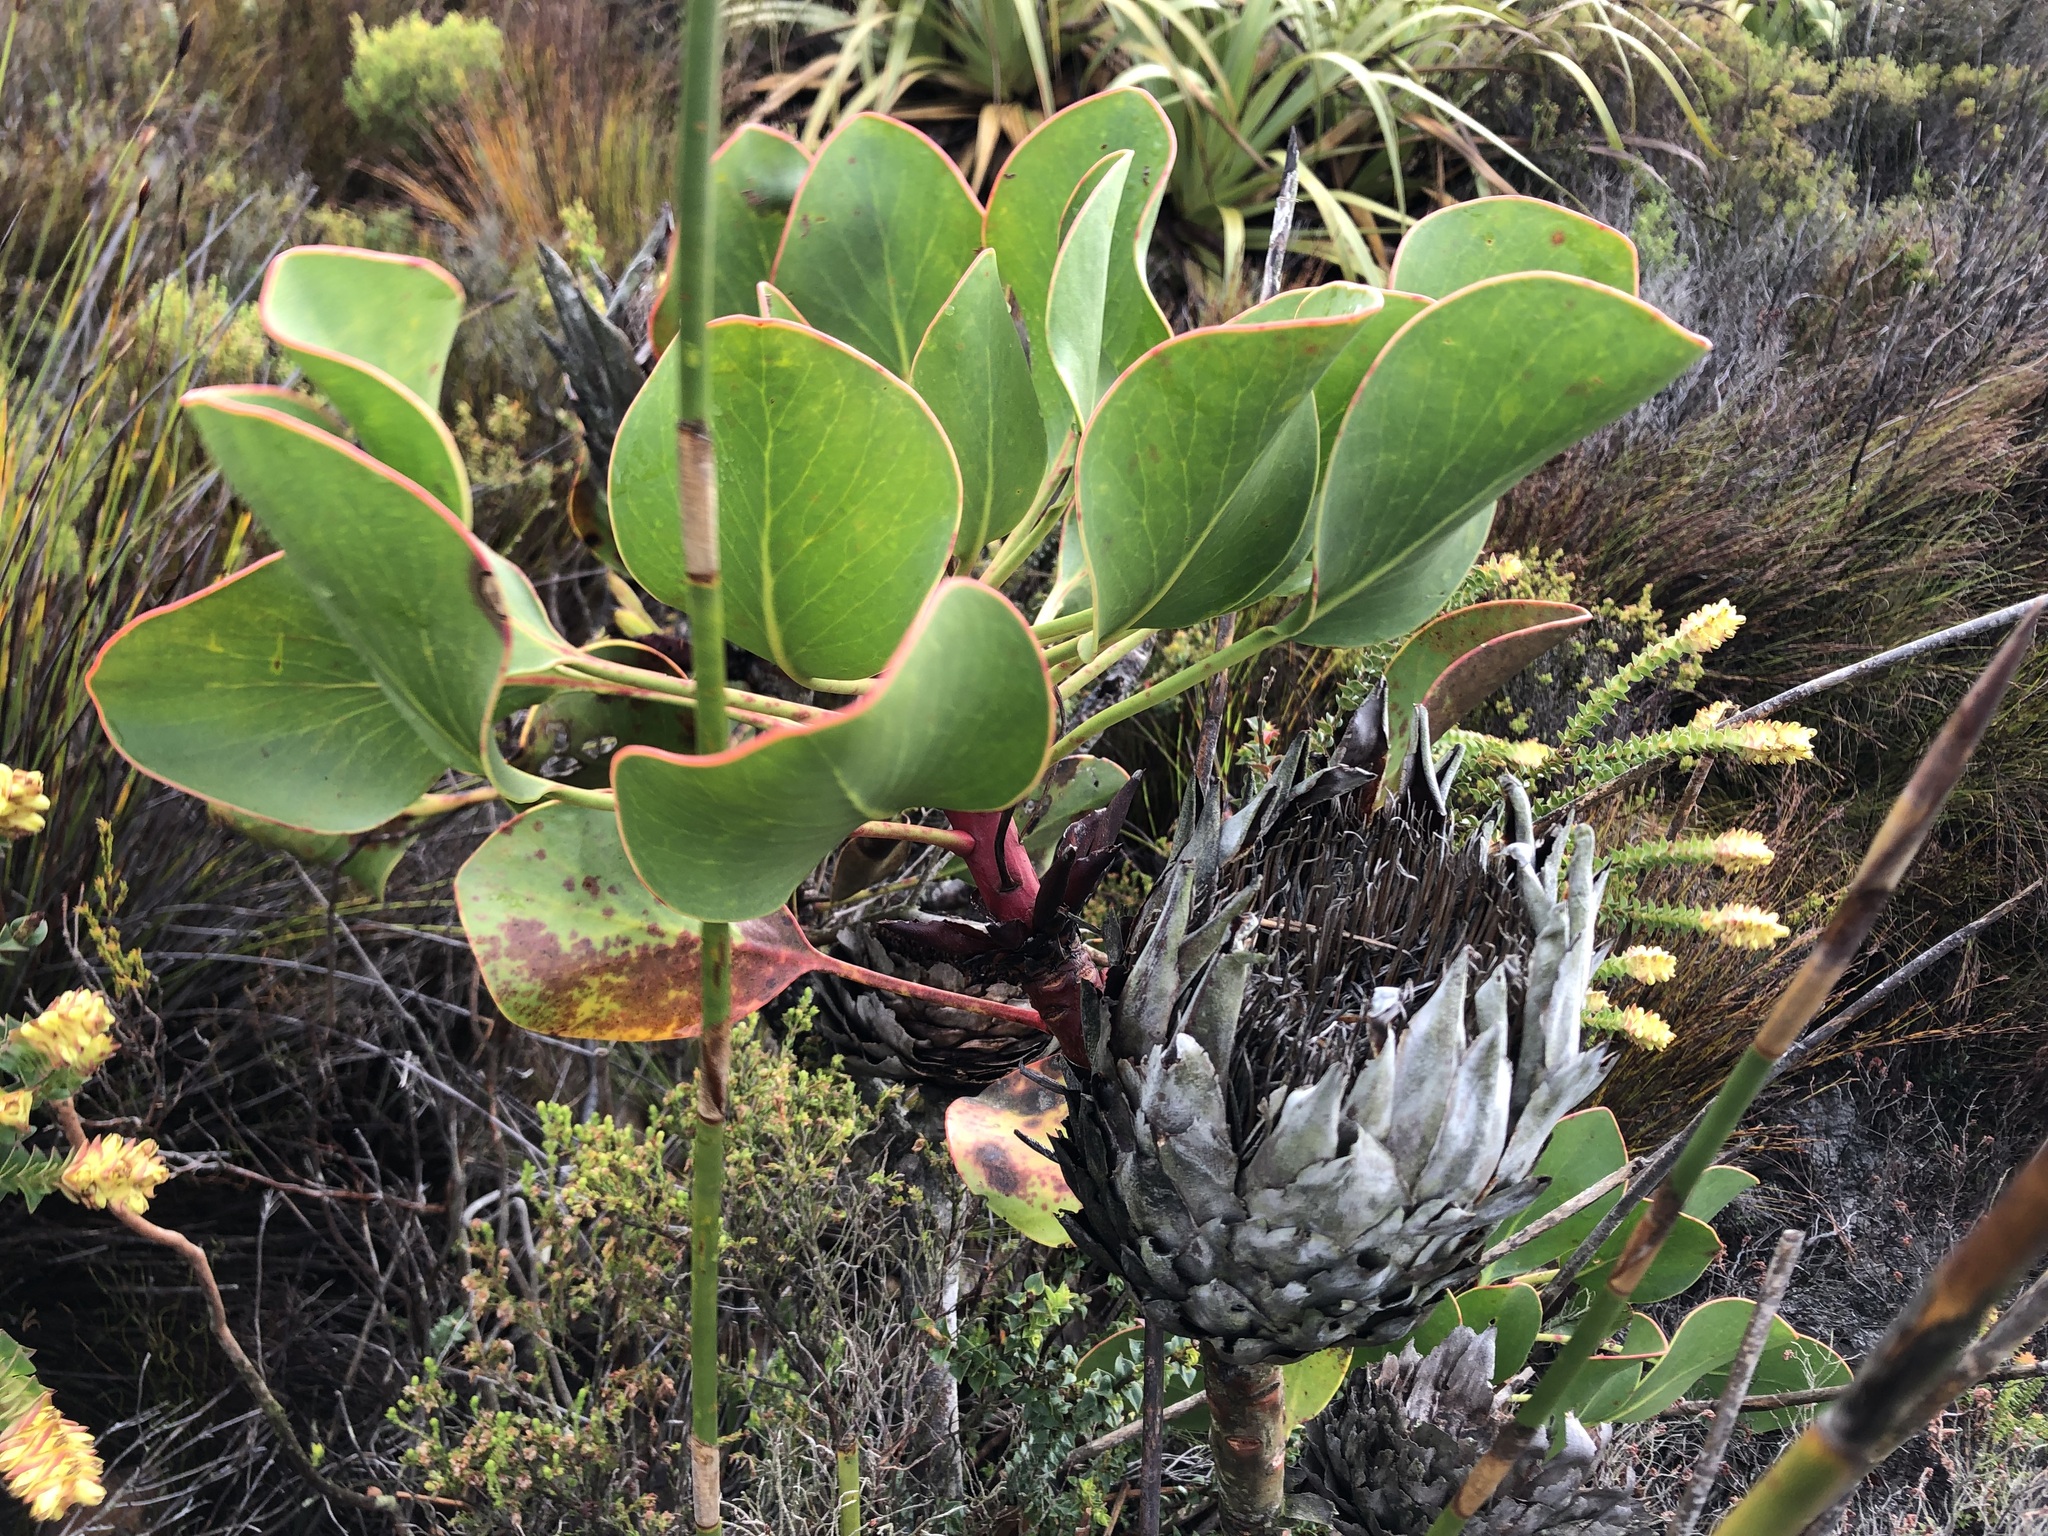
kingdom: Plantae
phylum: Tracheophyta
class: Magnoliopsida
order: Proteales
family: Proteaceae
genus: Protea
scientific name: Protea cynaroides
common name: King protea
